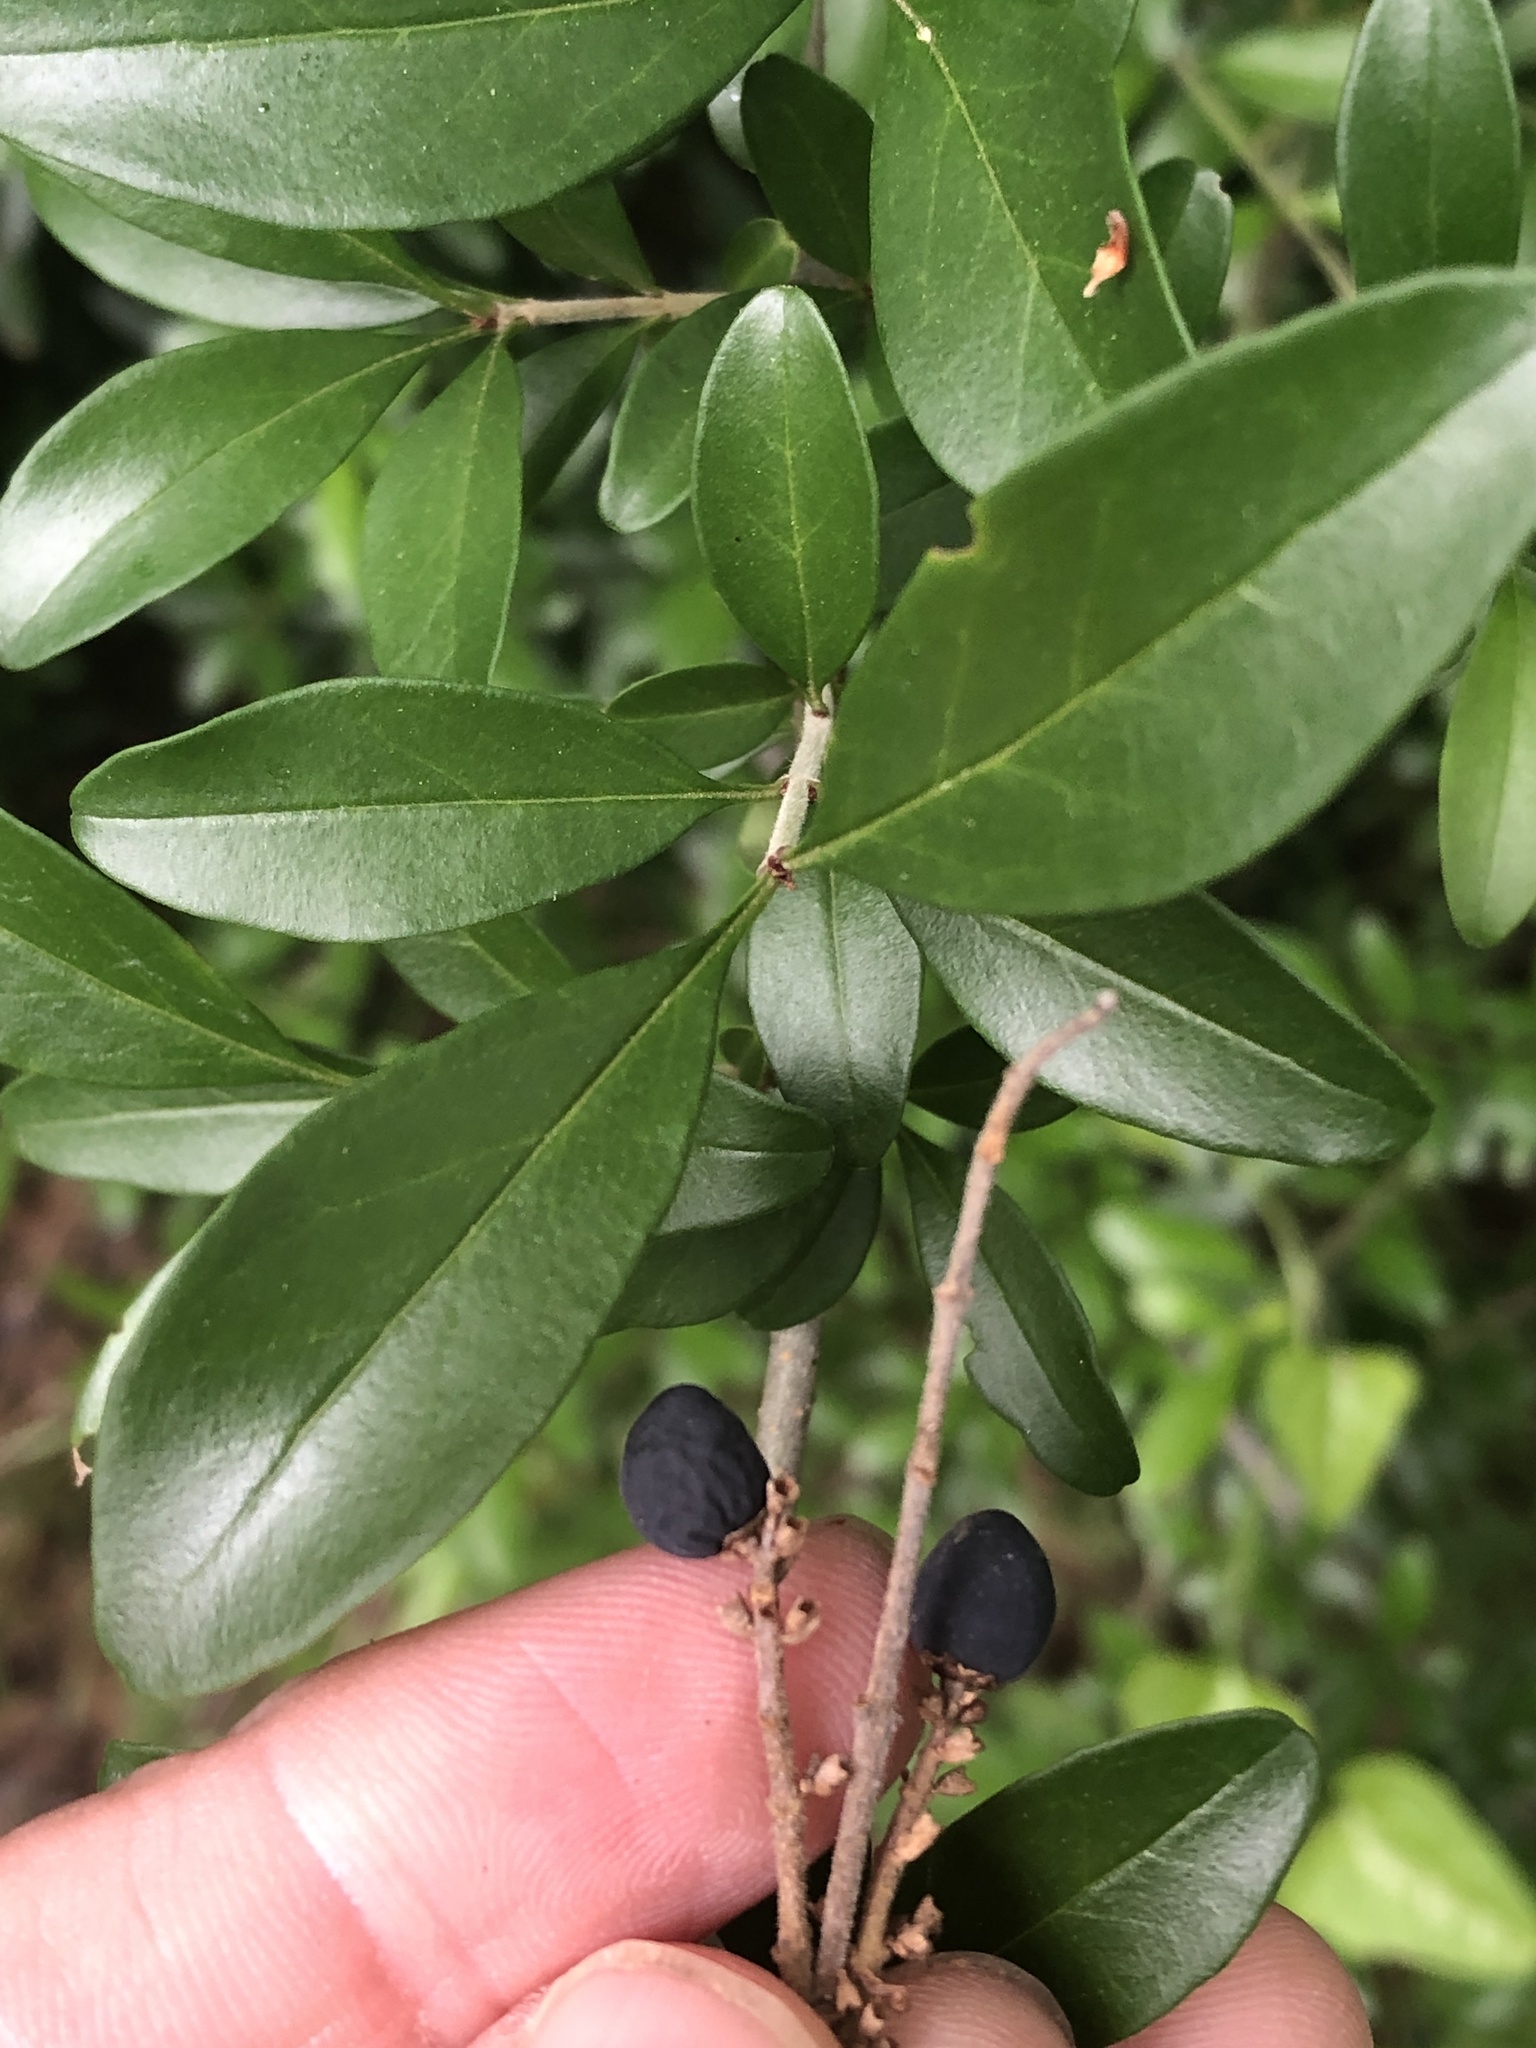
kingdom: Plantae
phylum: Tracheophyta
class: Magnoliopsida
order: Lamiales
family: Oleaceae
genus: Ligustrum
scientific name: Ligustrum quihoui
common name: Waxyleaf privet
